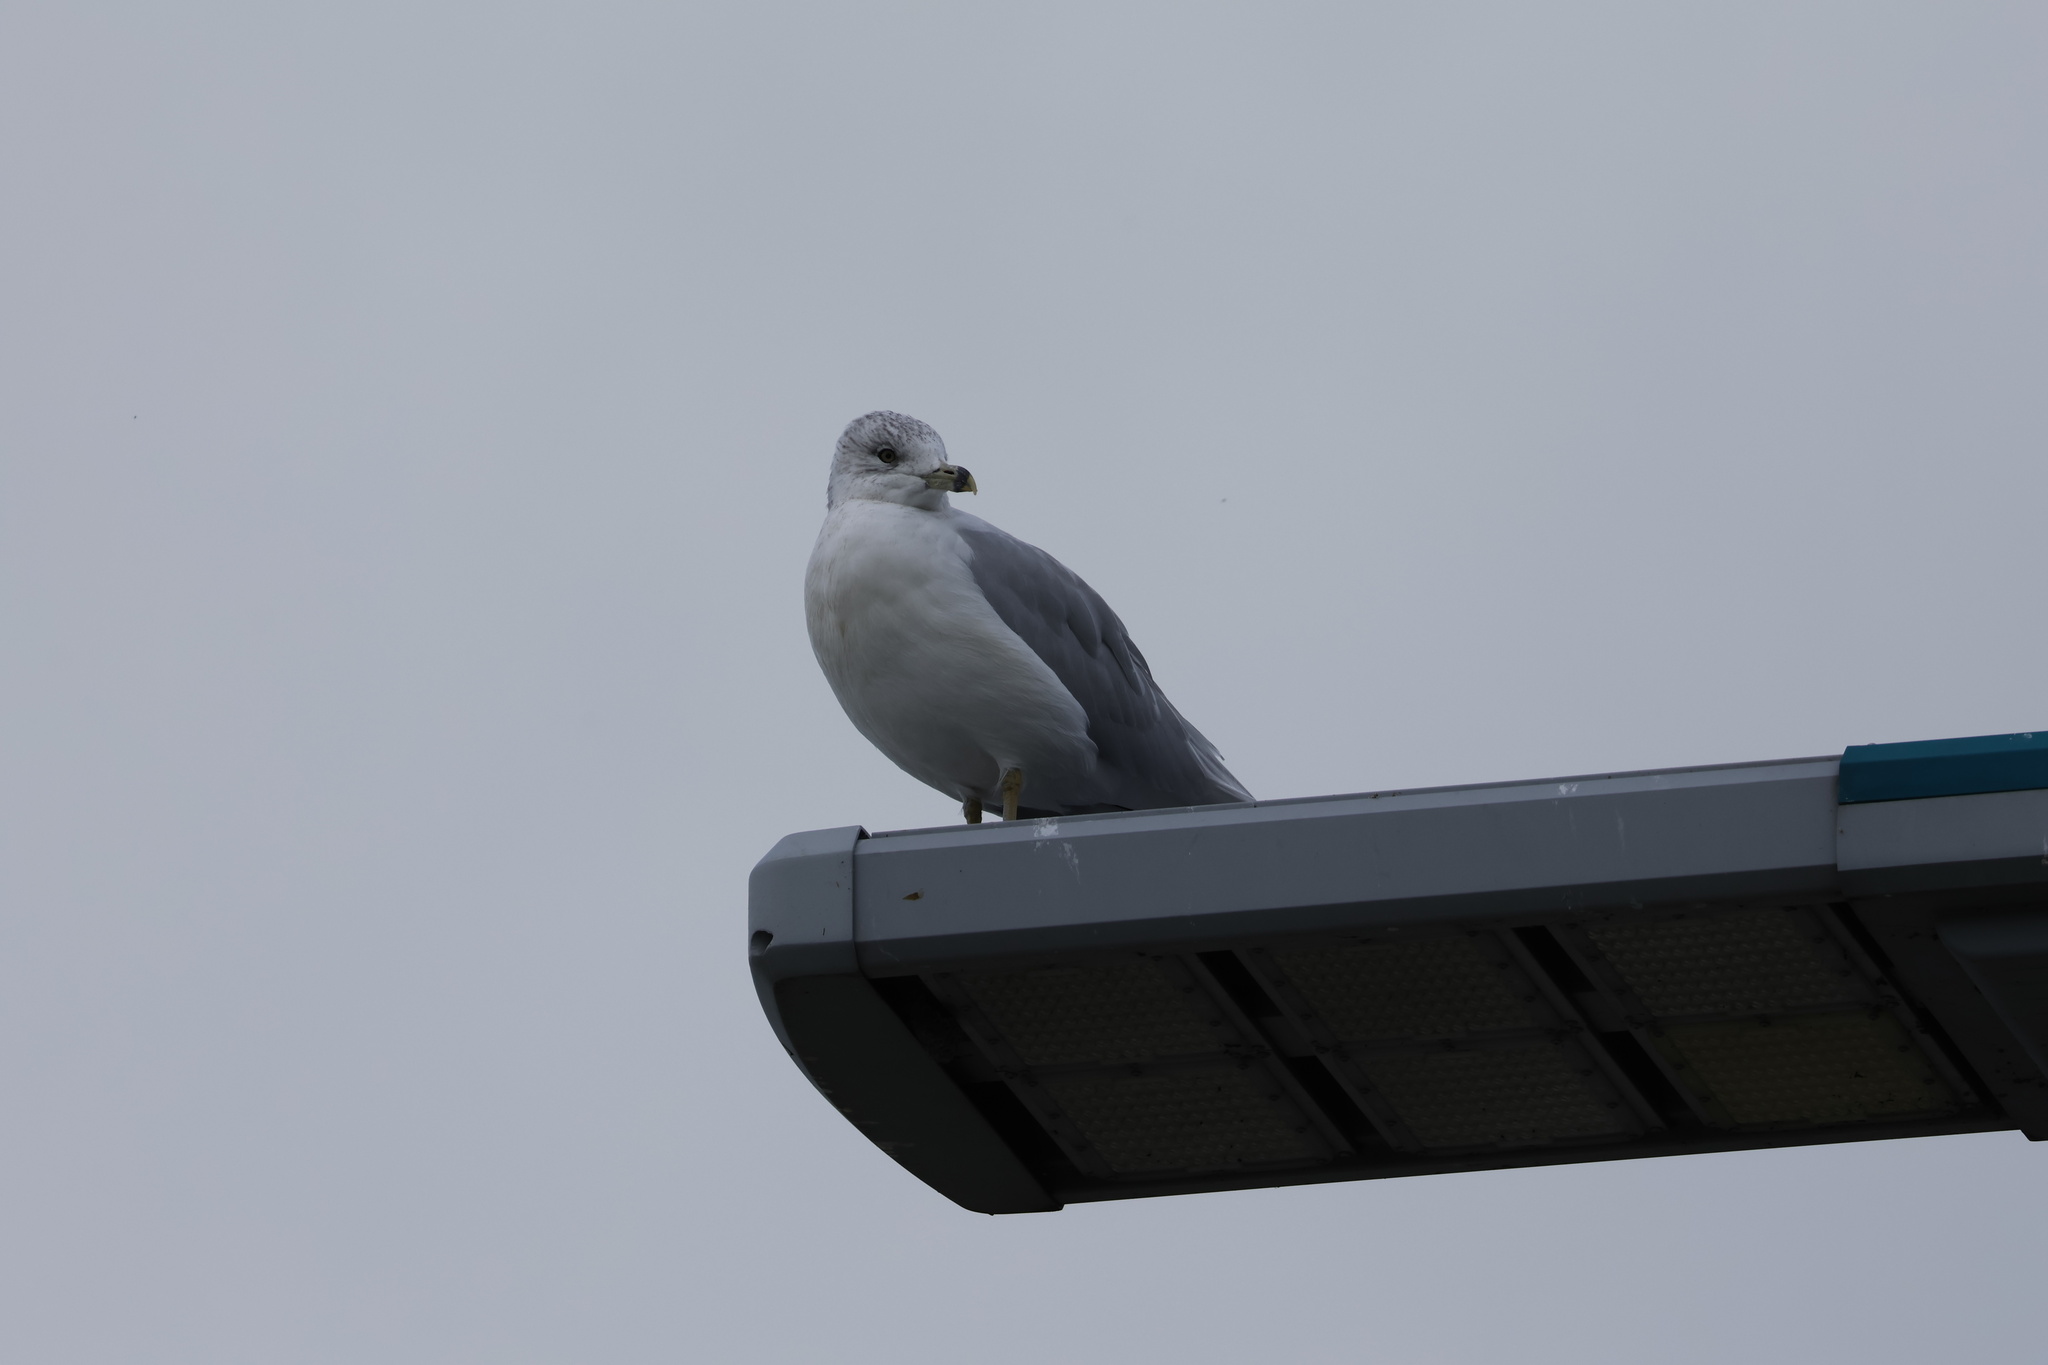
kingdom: Animalia
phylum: Chordata
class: Aves
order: Charadriiformes
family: Laridae
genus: Larus
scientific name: Larus delawarensis
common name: Ring-billed gull
